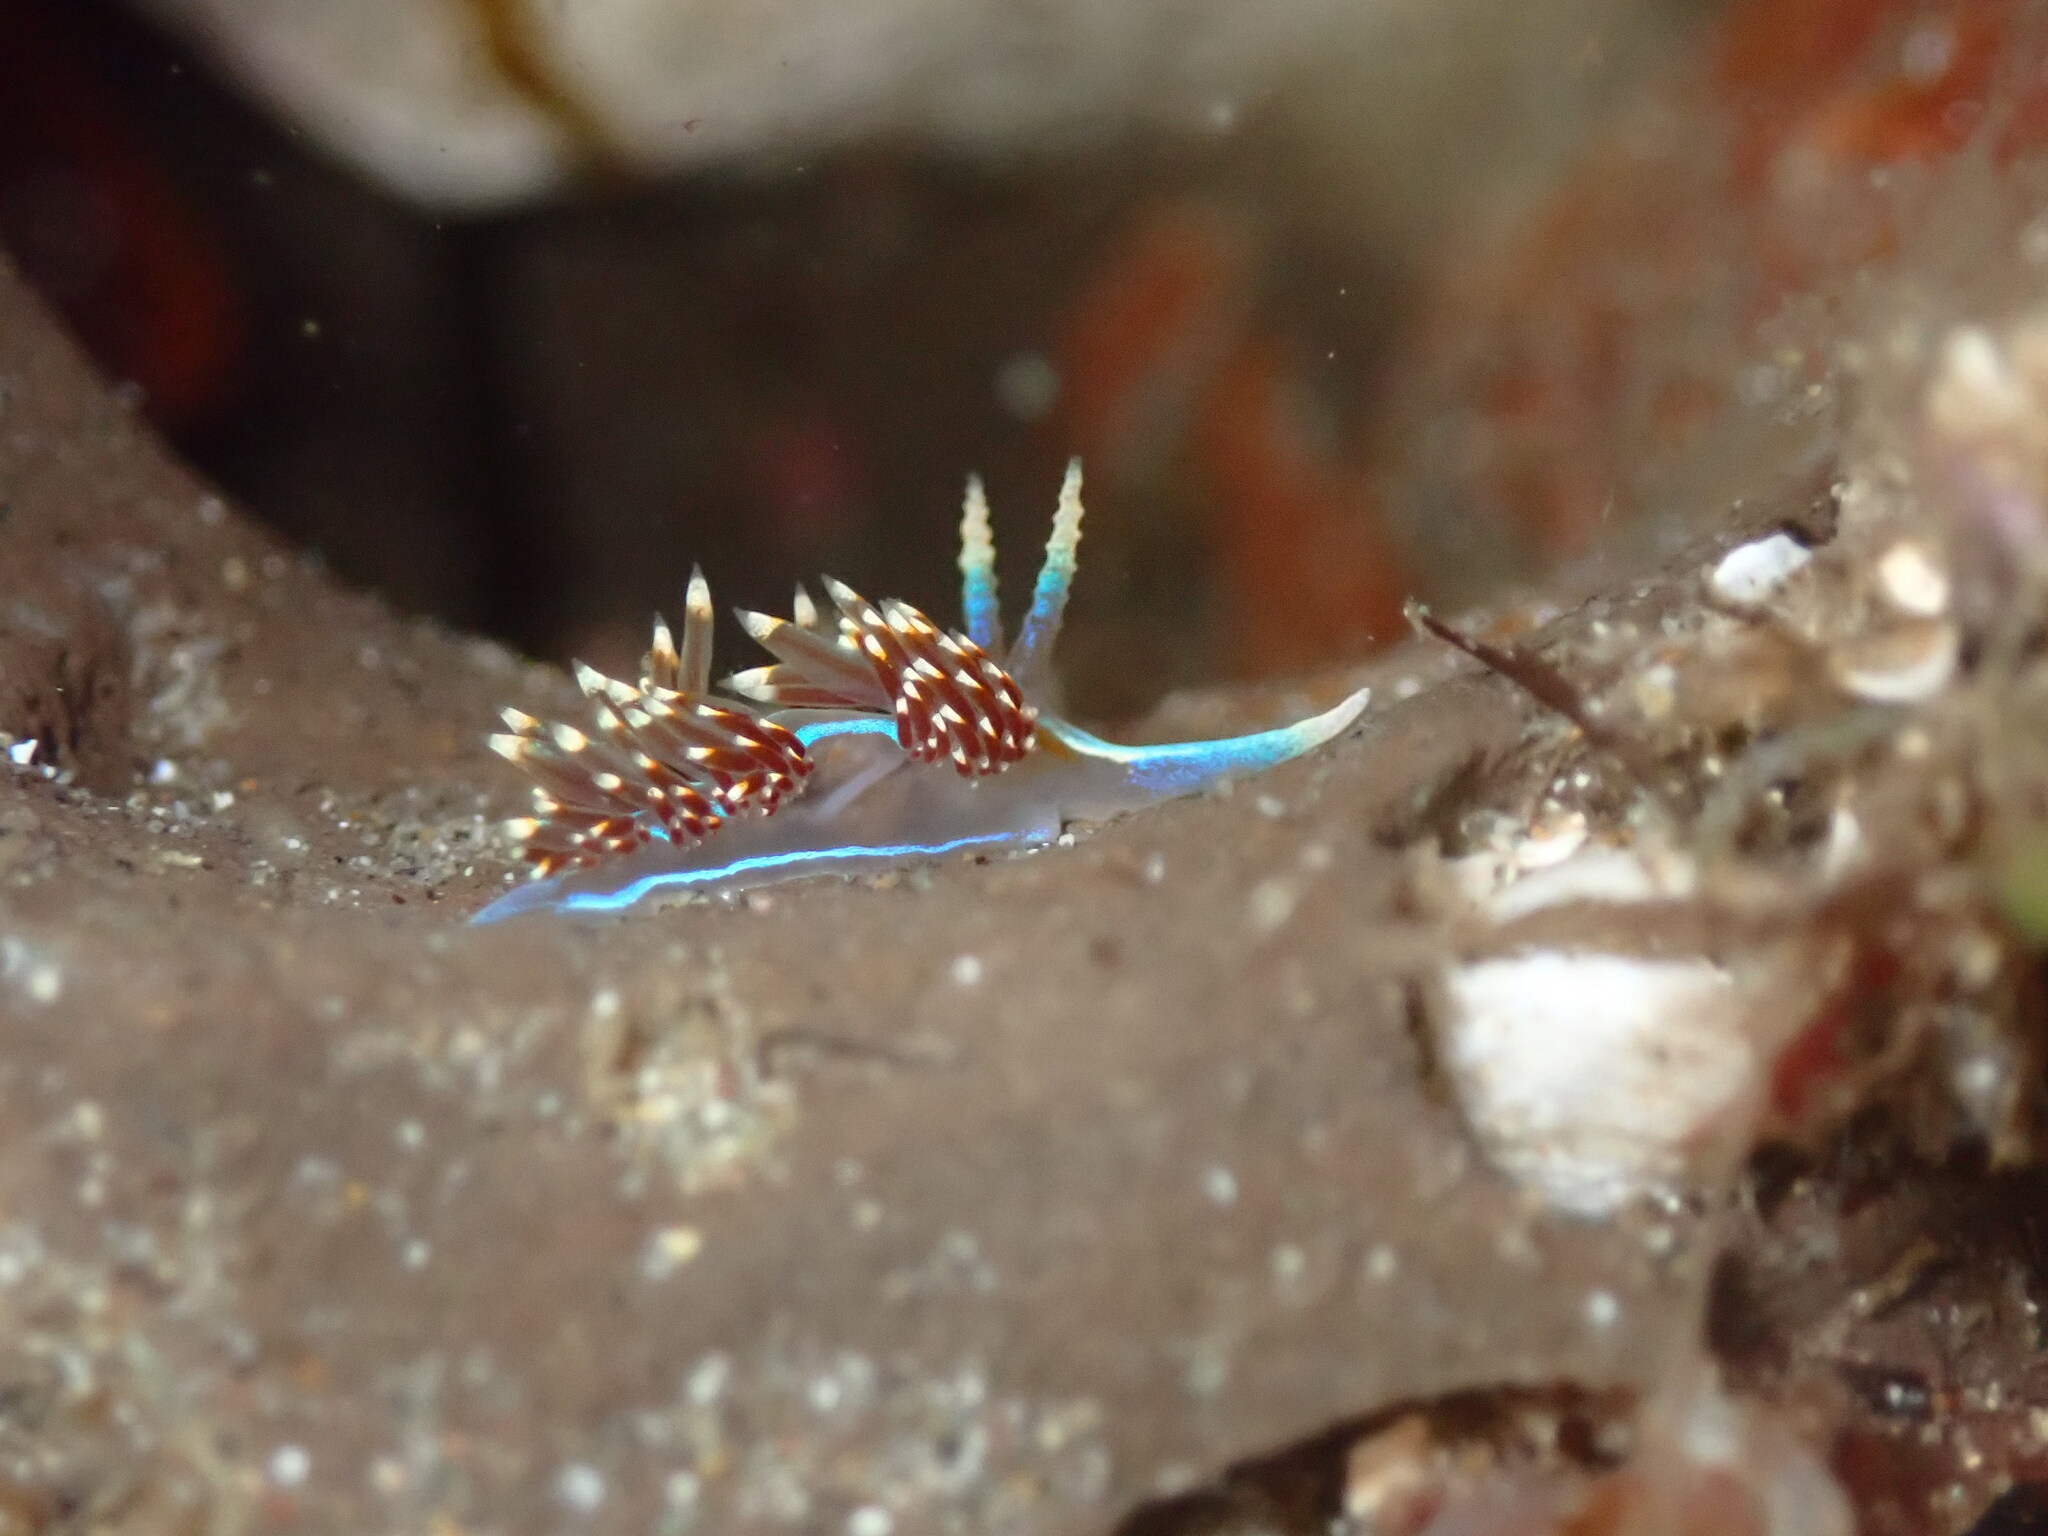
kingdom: Animalia
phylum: Mollusca
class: Gastropoda
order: Nudibranchia
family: Myrrhinidae
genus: Hermissenda
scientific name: Hermissenda opalescens
